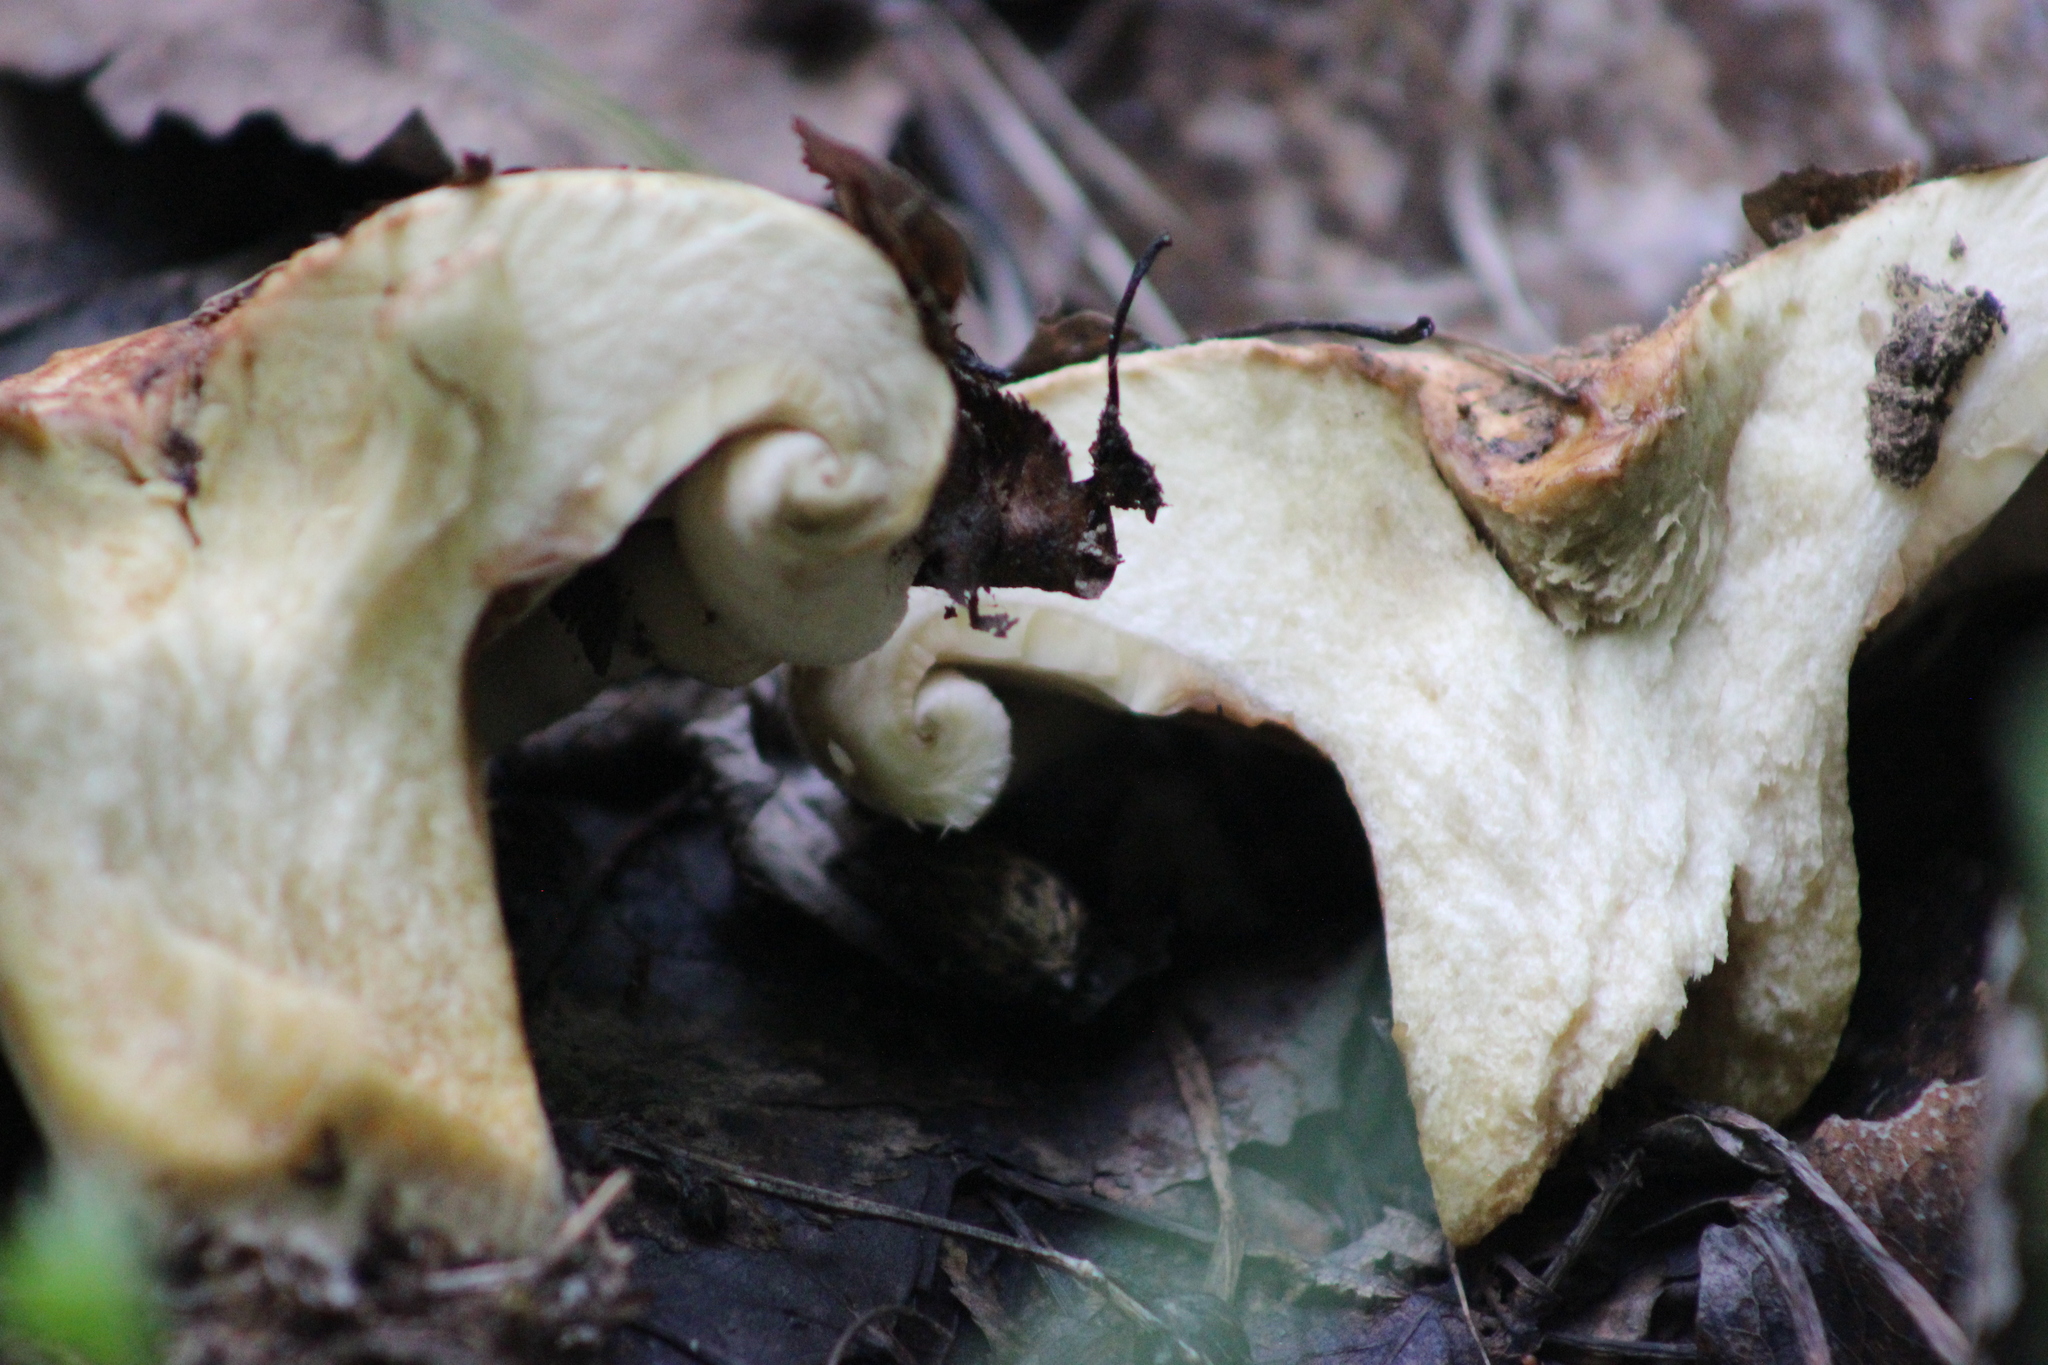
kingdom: Fungi
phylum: Basidiomycota
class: Agaricomycetes
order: Russulales
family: Russulaceae
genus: Lactarius
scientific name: Lactarius controversus
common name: Blushing milkcap
